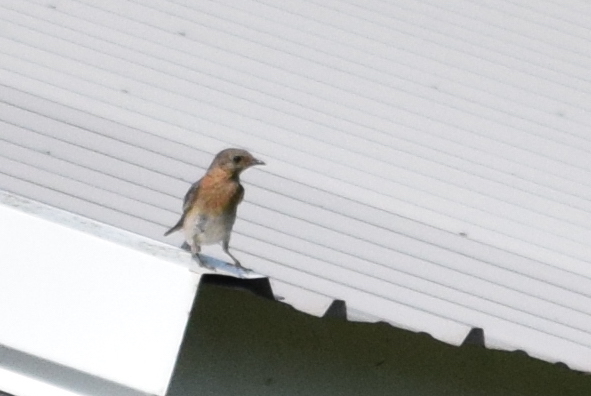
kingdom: Animalia
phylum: Chordata
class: Aves
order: Passeriformes
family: Turdidae
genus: Sialia
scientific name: Sialia sialis
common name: Eastern bluebird
